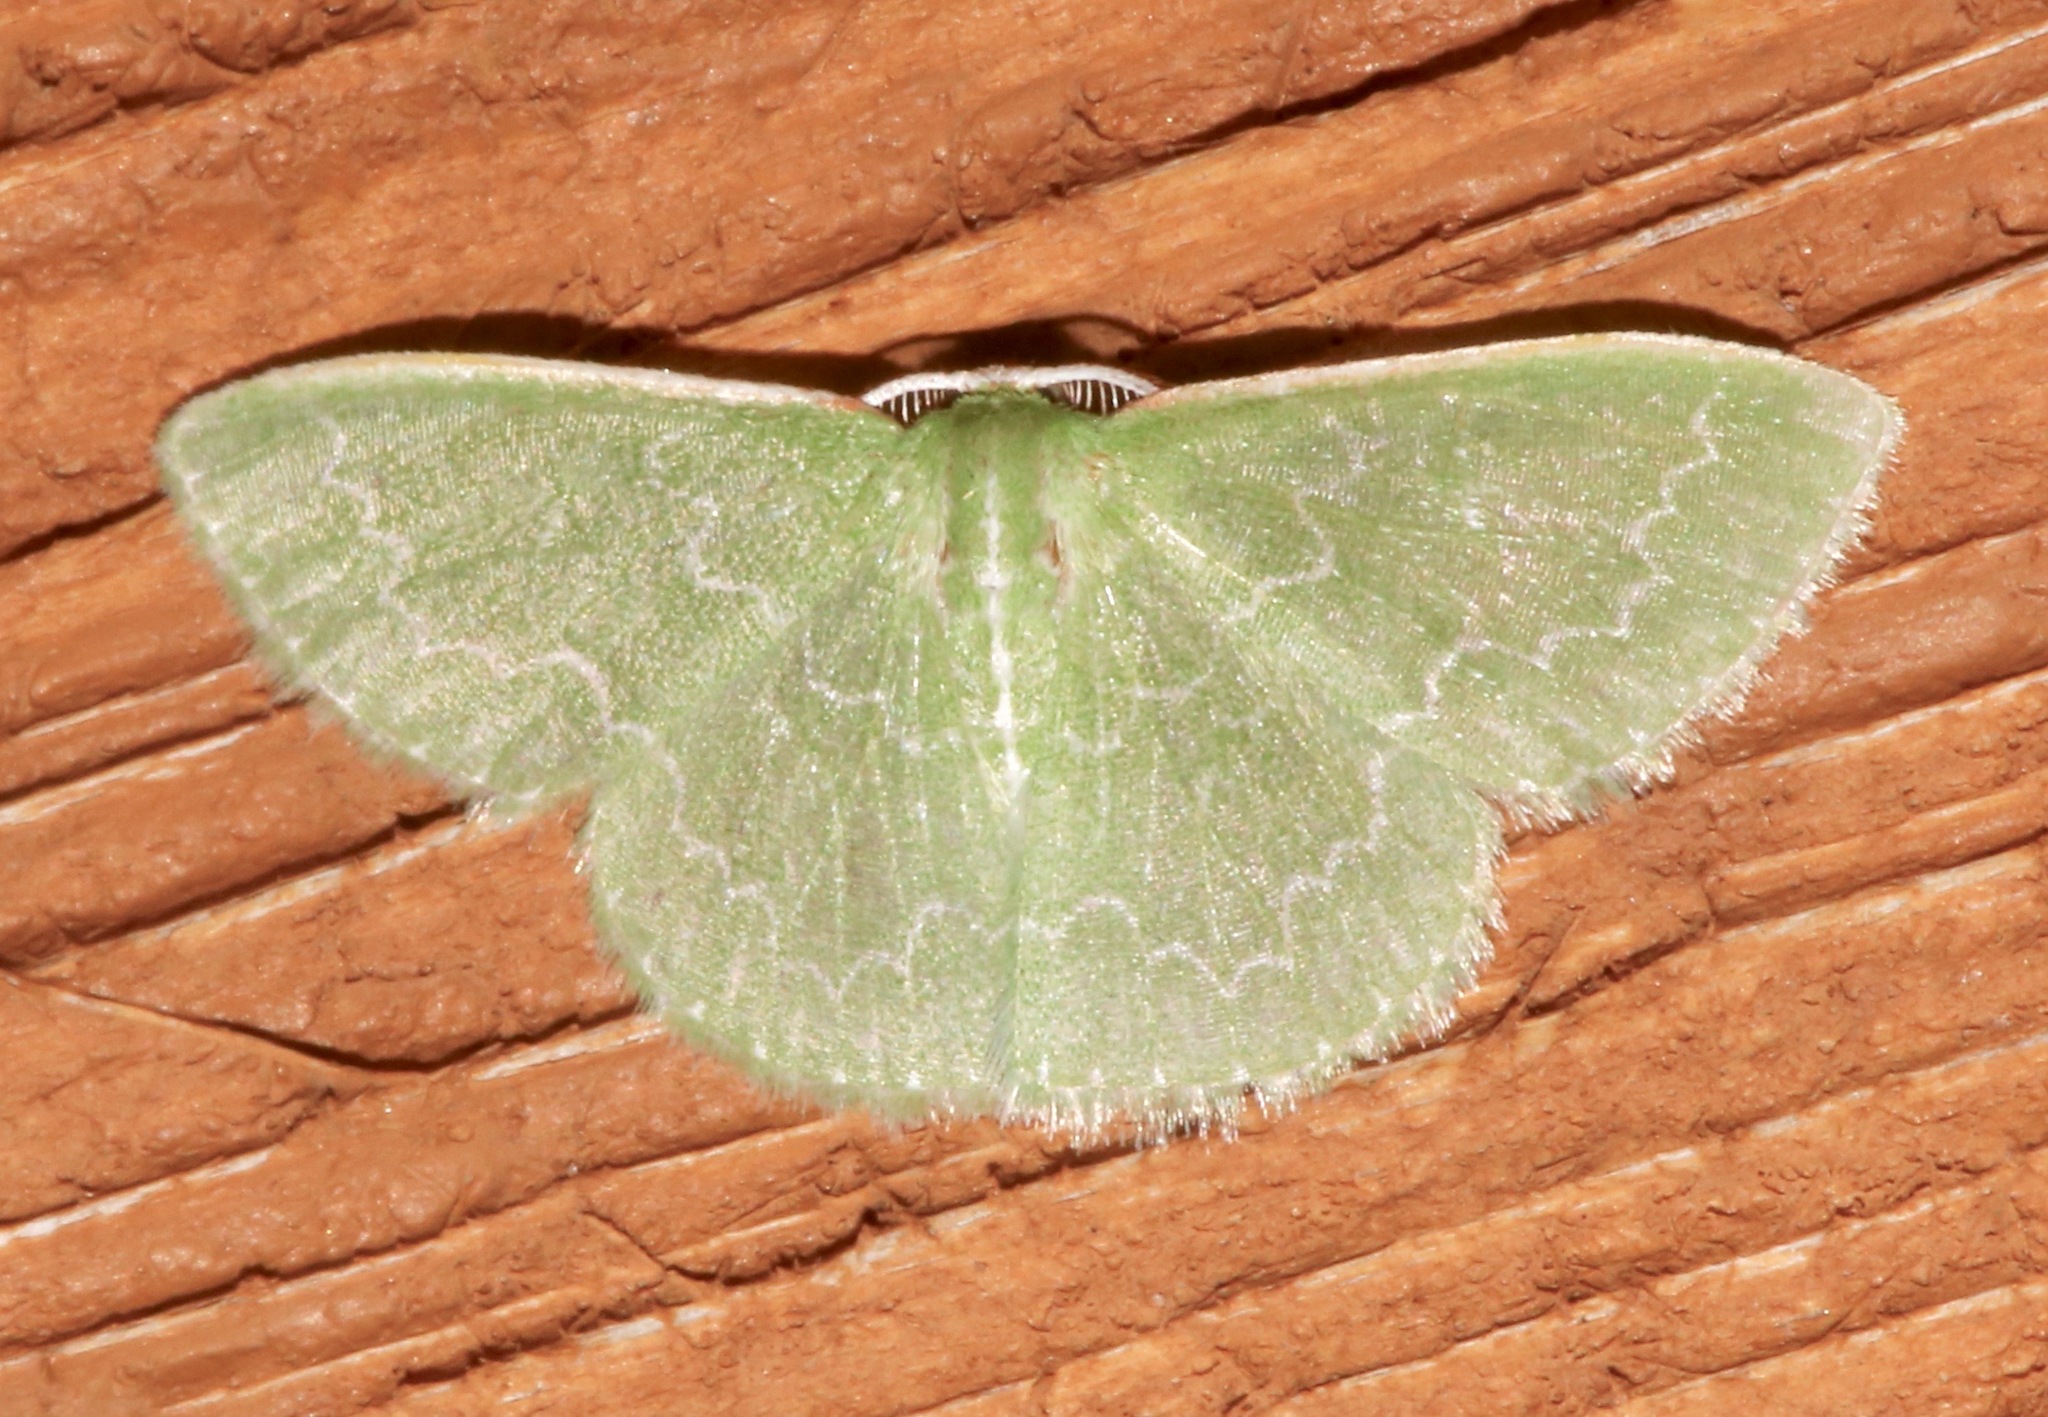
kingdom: Animalia
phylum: Arthropoda
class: Insecta
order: Lepidoptera
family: Geometridae
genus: Synchlora
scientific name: Synchlora frondaria
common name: Southern emerald
